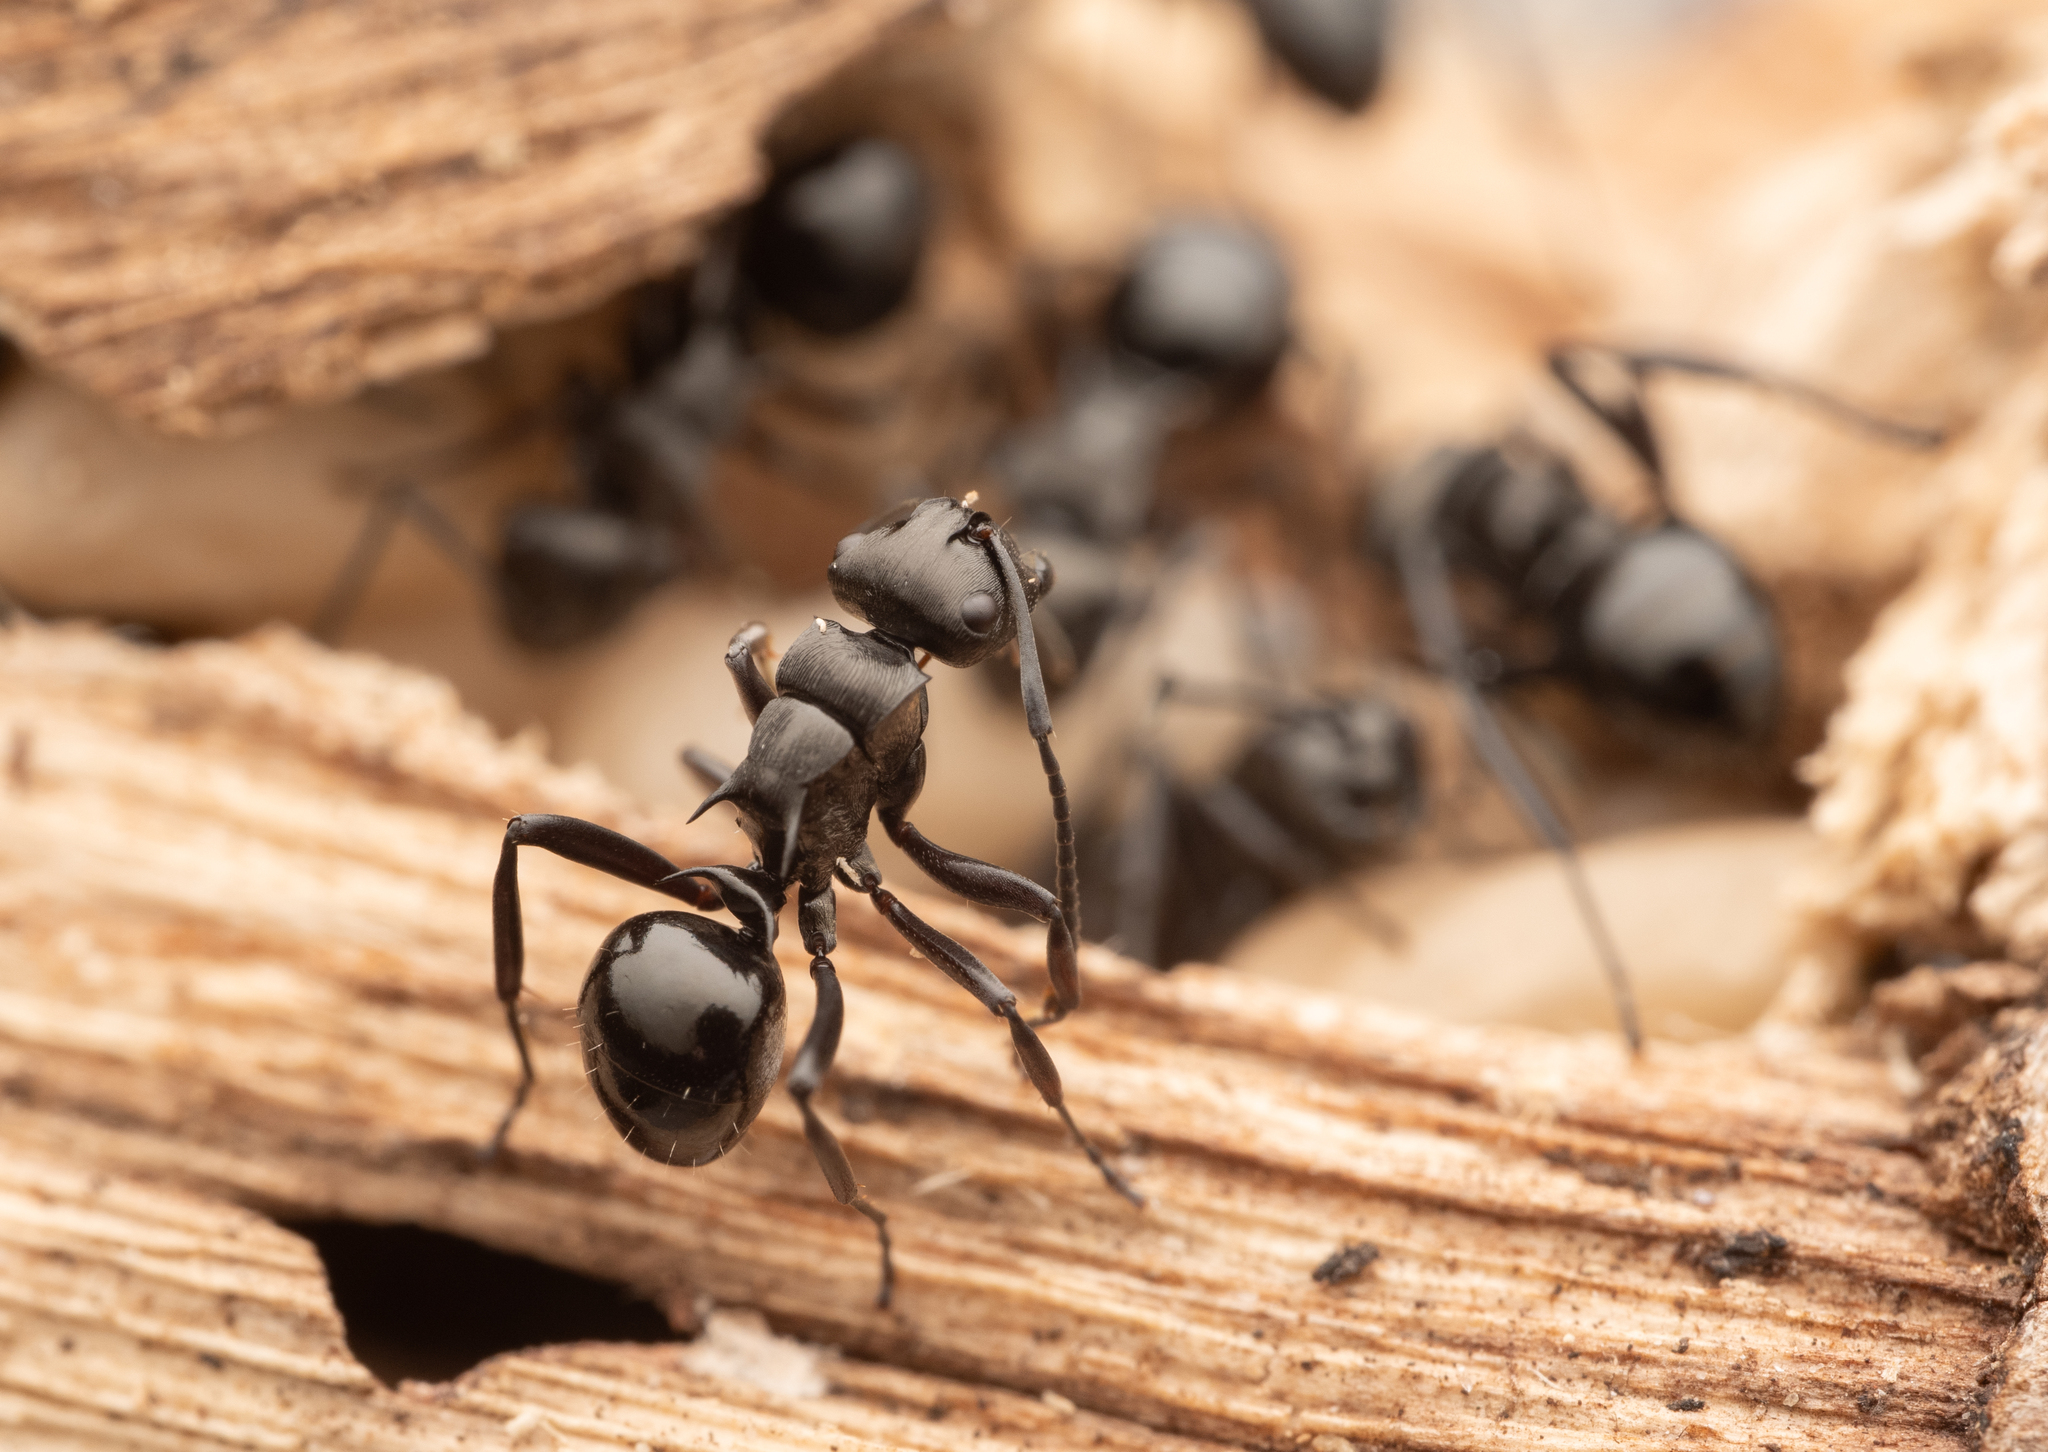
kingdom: Animalia
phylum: Arthropoda
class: Insecta
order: Hymenoptera
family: Formicidae
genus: Polyrhachis
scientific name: Polyrhachis clio
